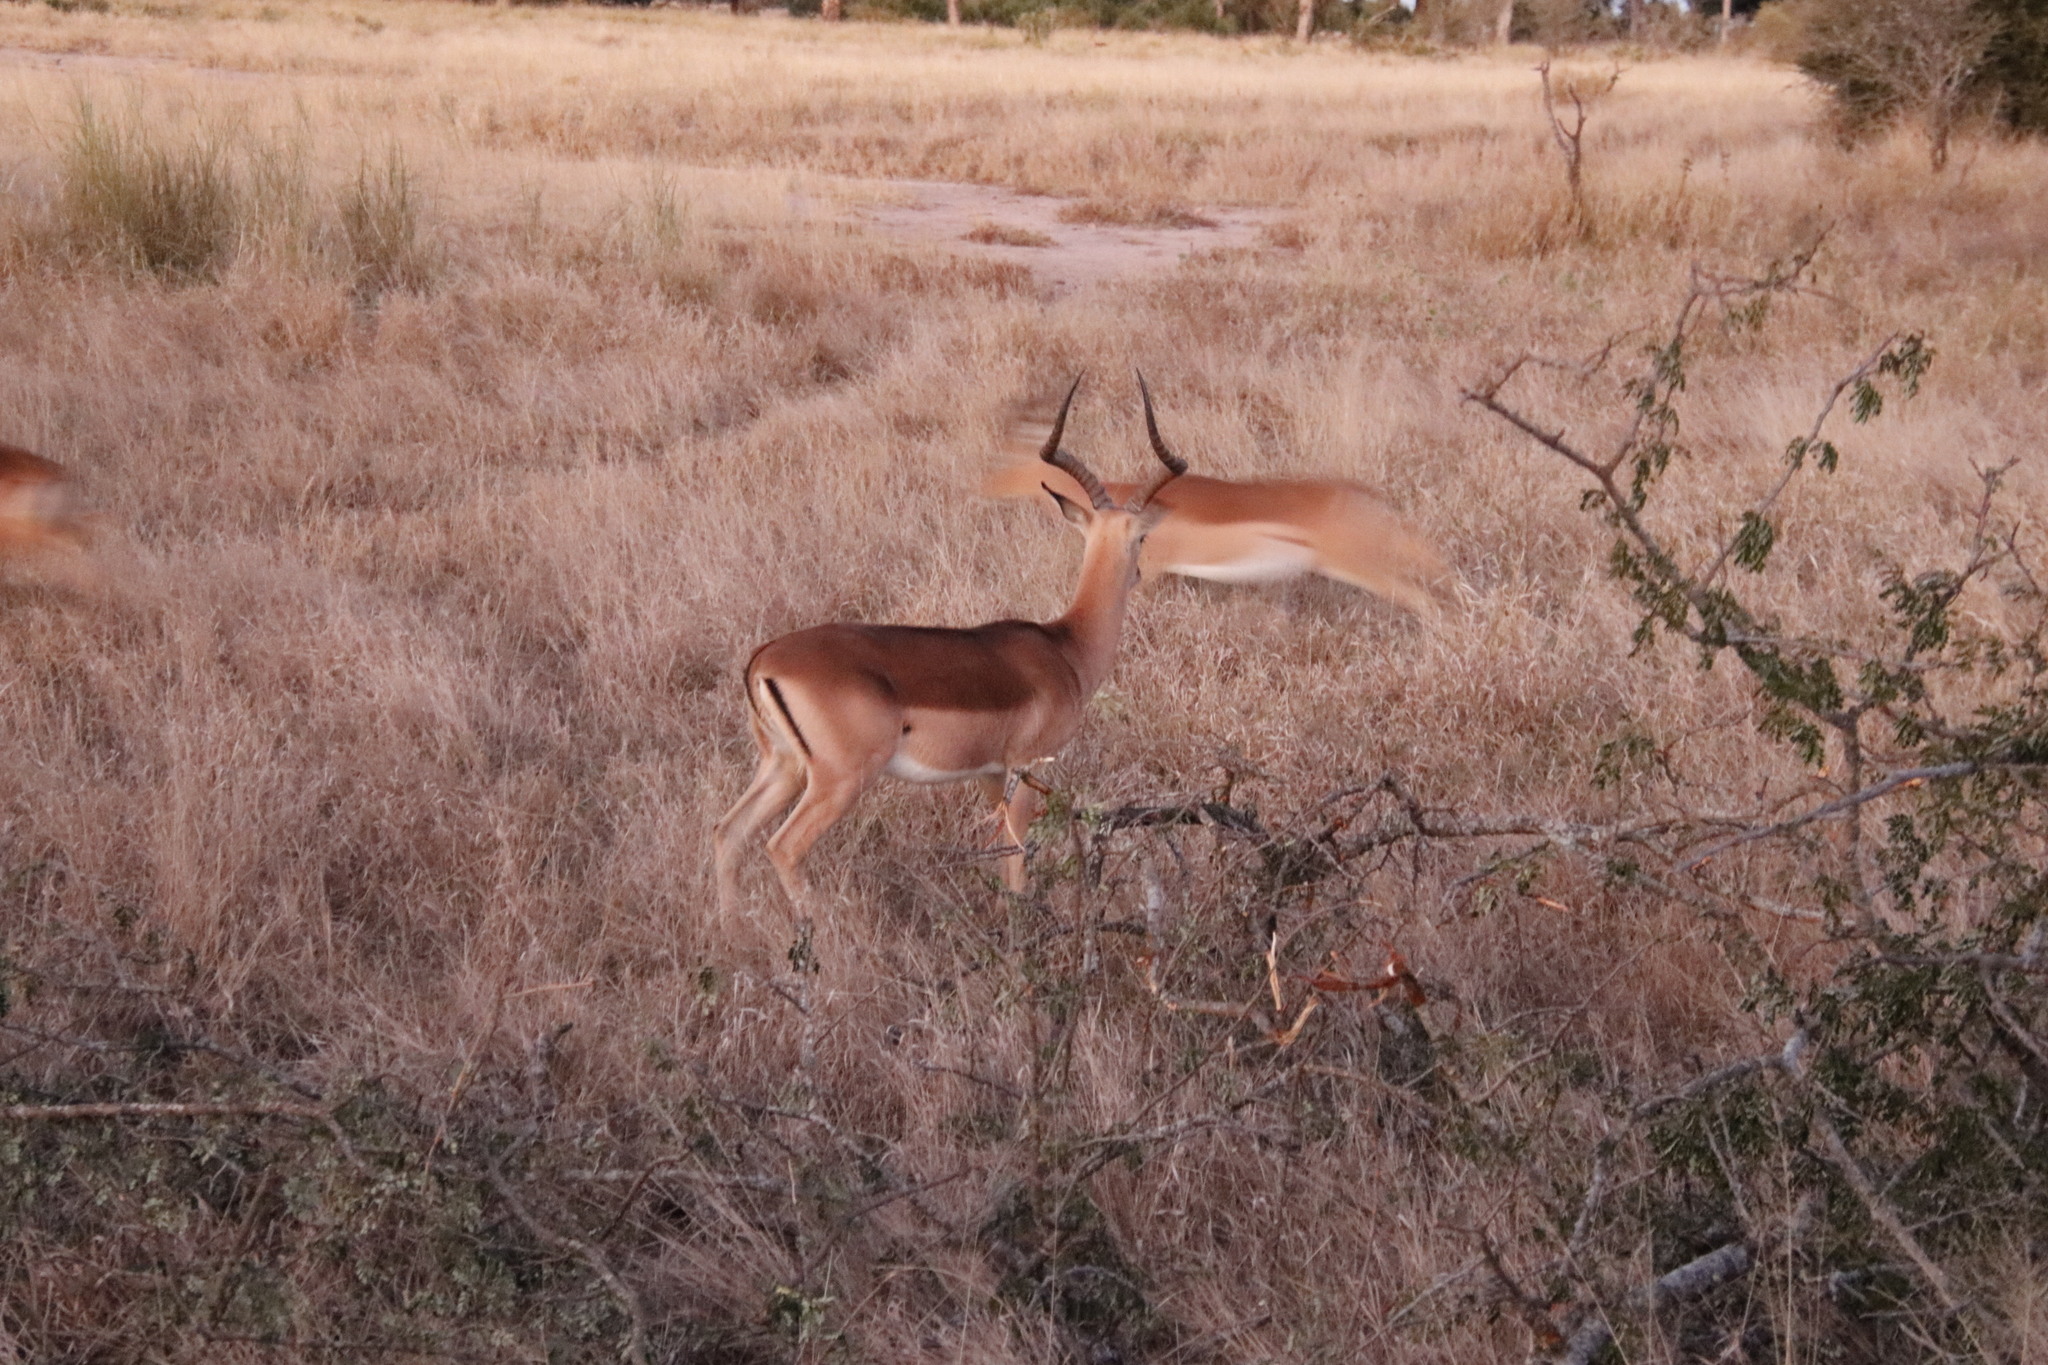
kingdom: Animalia
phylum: Chordata
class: Mammalia
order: Artiodactyla
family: Bovidae
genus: Aepyceros
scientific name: Aepyceros melampus
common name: Impala
